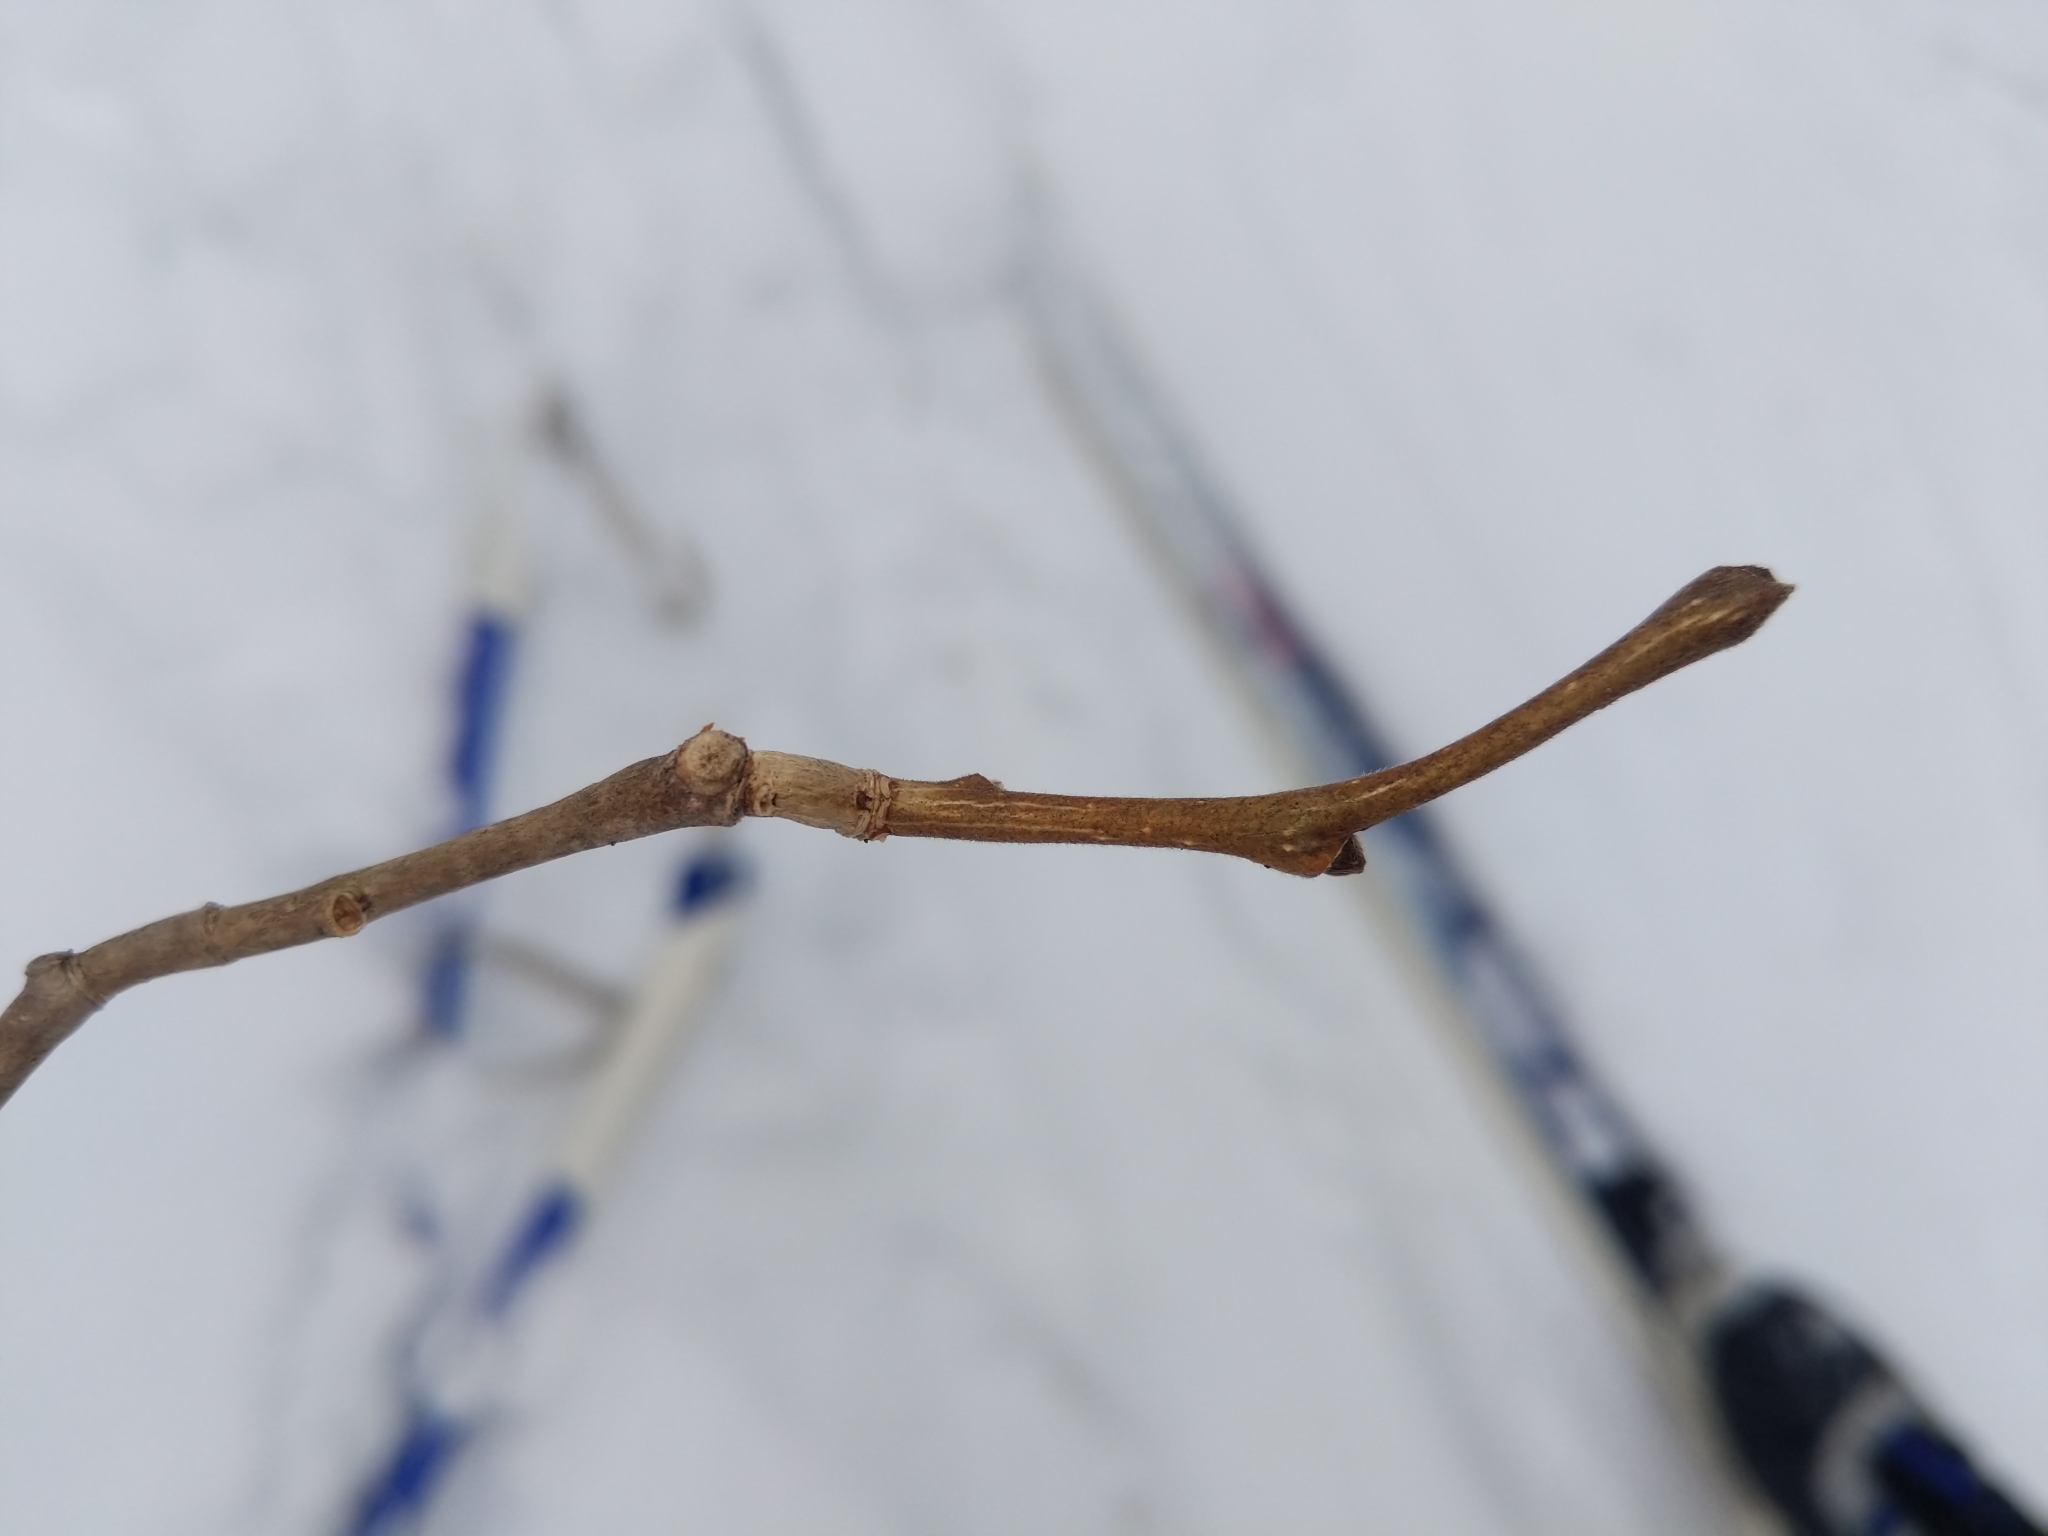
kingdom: Plantae
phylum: Tracheophyta
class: Magnoliopsida
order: Malvales
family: Thymelaeaceae
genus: Dirca
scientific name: Dirca palustris
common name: Leatherwood
